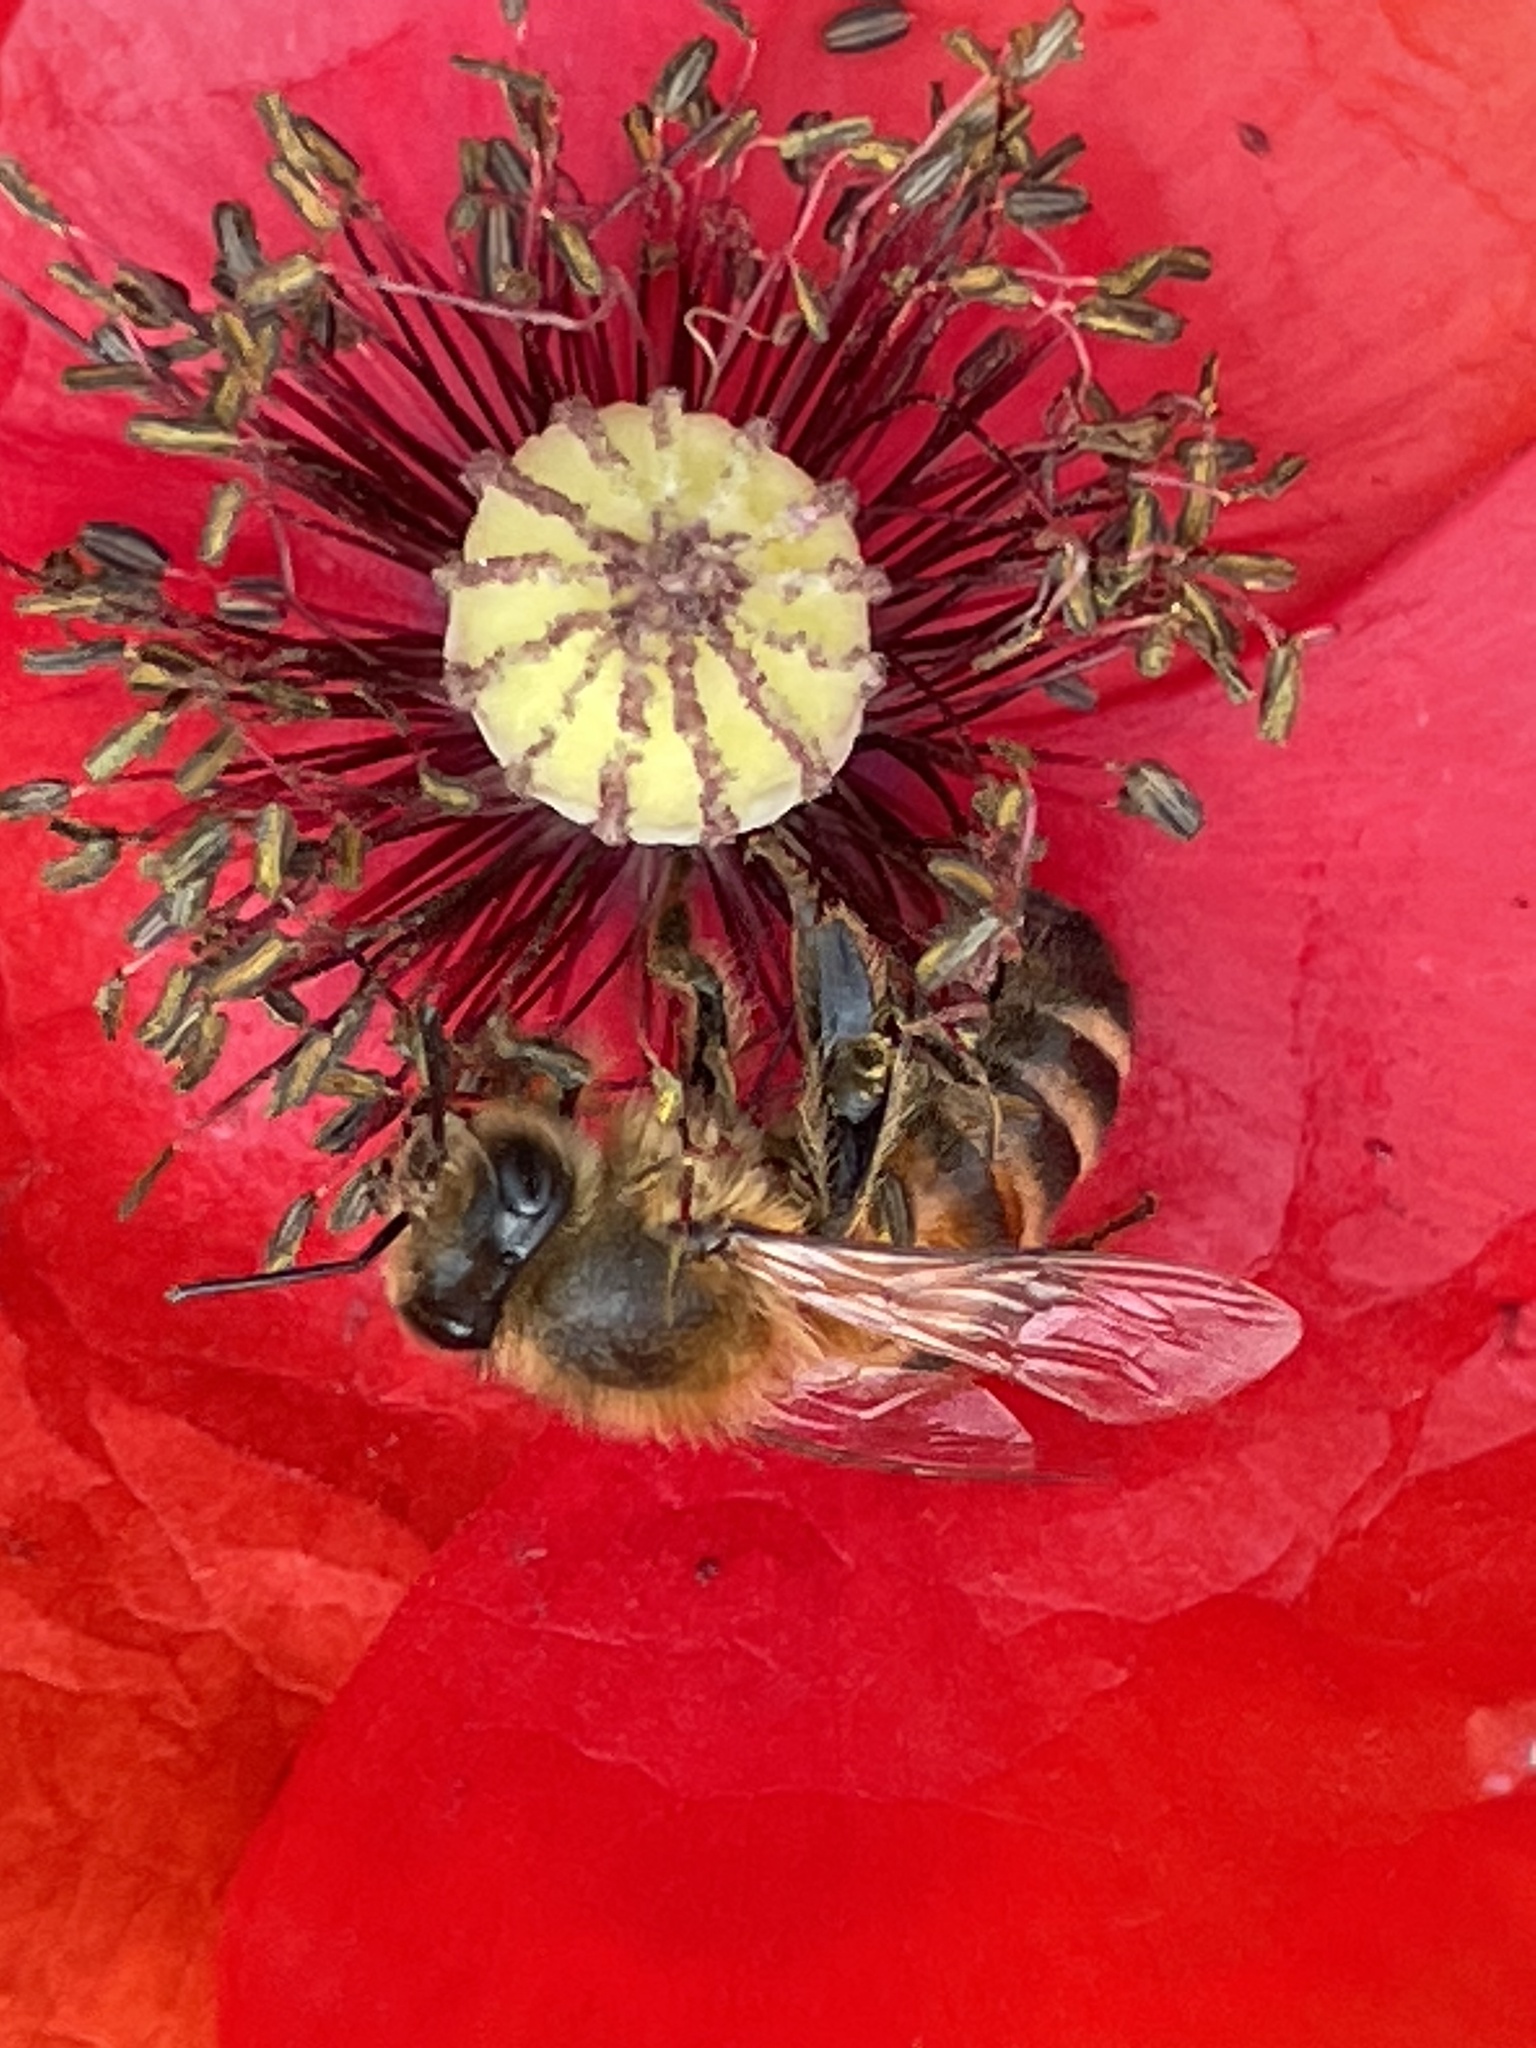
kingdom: Animalia
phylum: Arthropoda
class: Insecta
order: Hymenoptera
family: Apidae
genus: Apis
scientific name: Apis mellifera
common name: Honey bee
